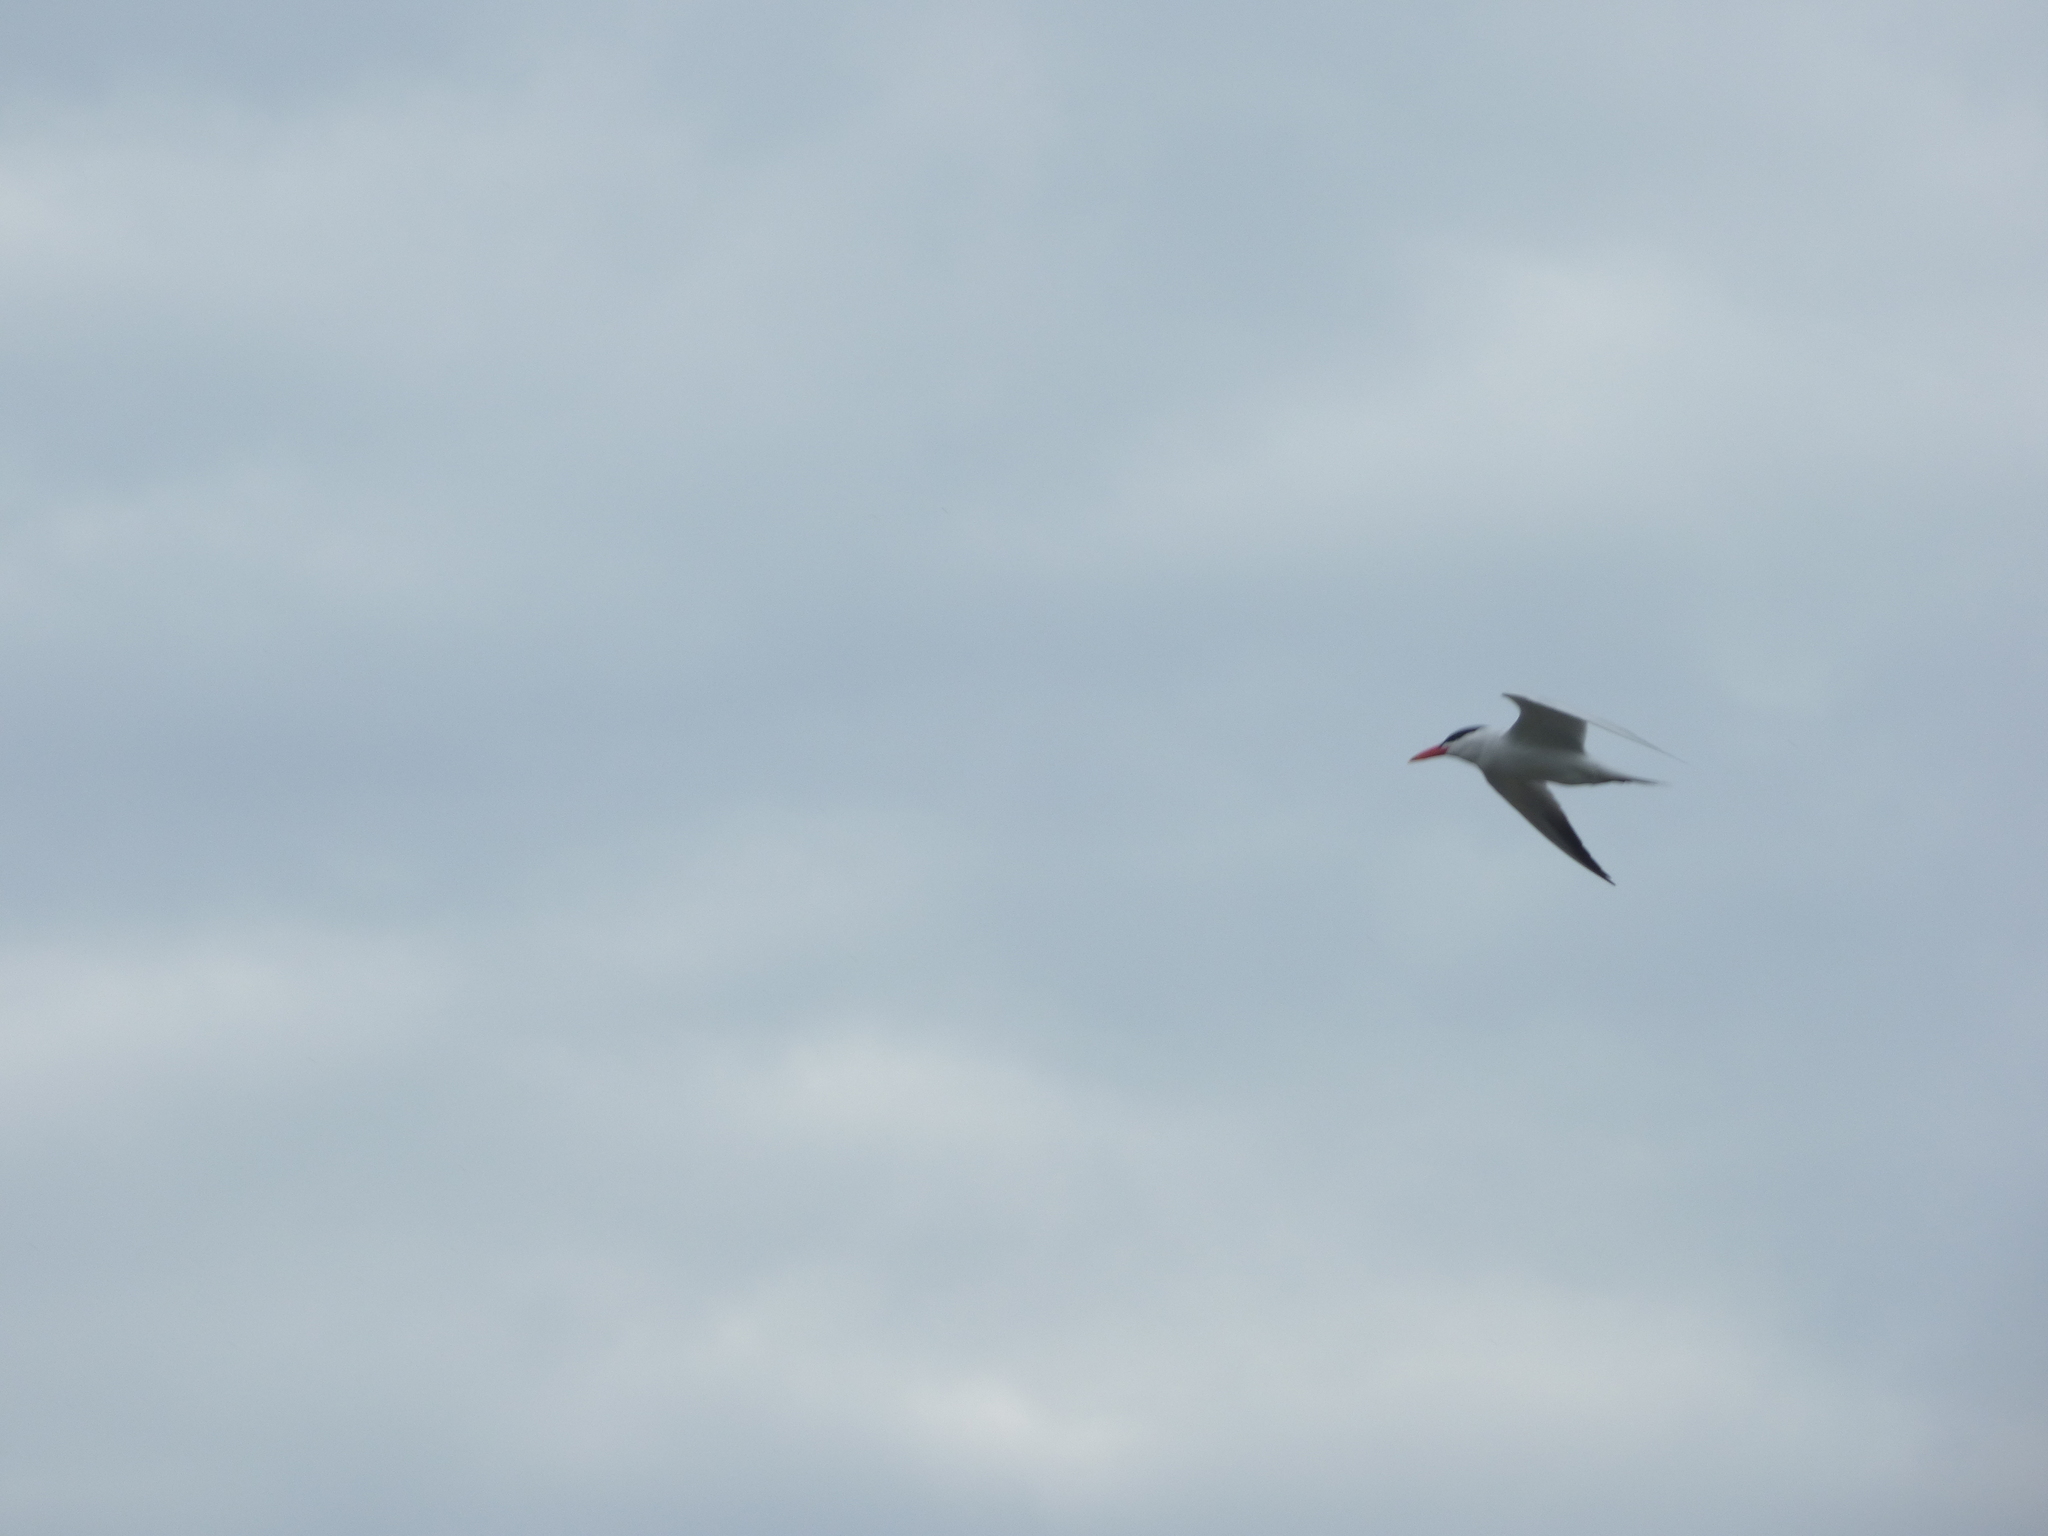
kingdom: Animalia
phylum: Chordata
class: Aves
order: Charadriiformes
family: Laridae
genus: Hydroprogne
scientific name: Hydroprogne caspia
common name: Caspian tern
